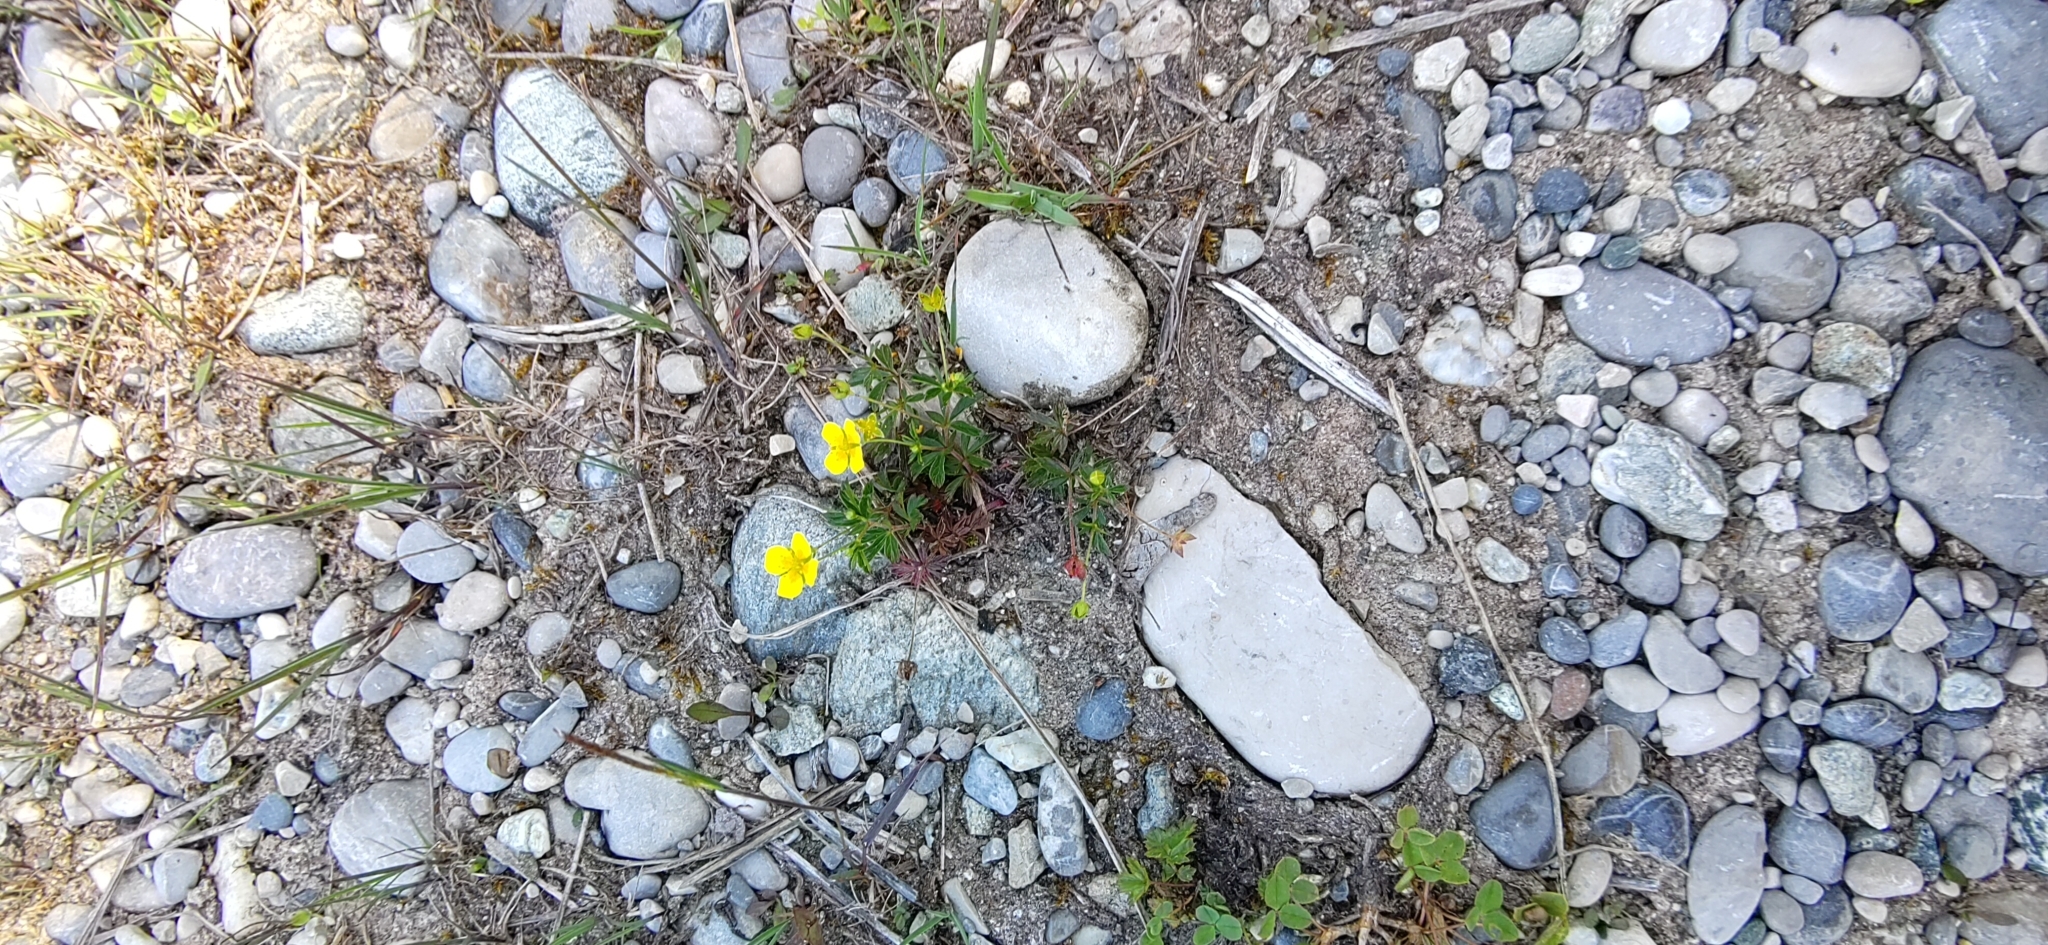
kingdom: Plantae
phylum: Tracheophyta
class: Magnoliopsida
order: Rosales
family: Rosaceae
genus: Potentilla
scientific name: Potentilla erecta
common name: Tormentil
